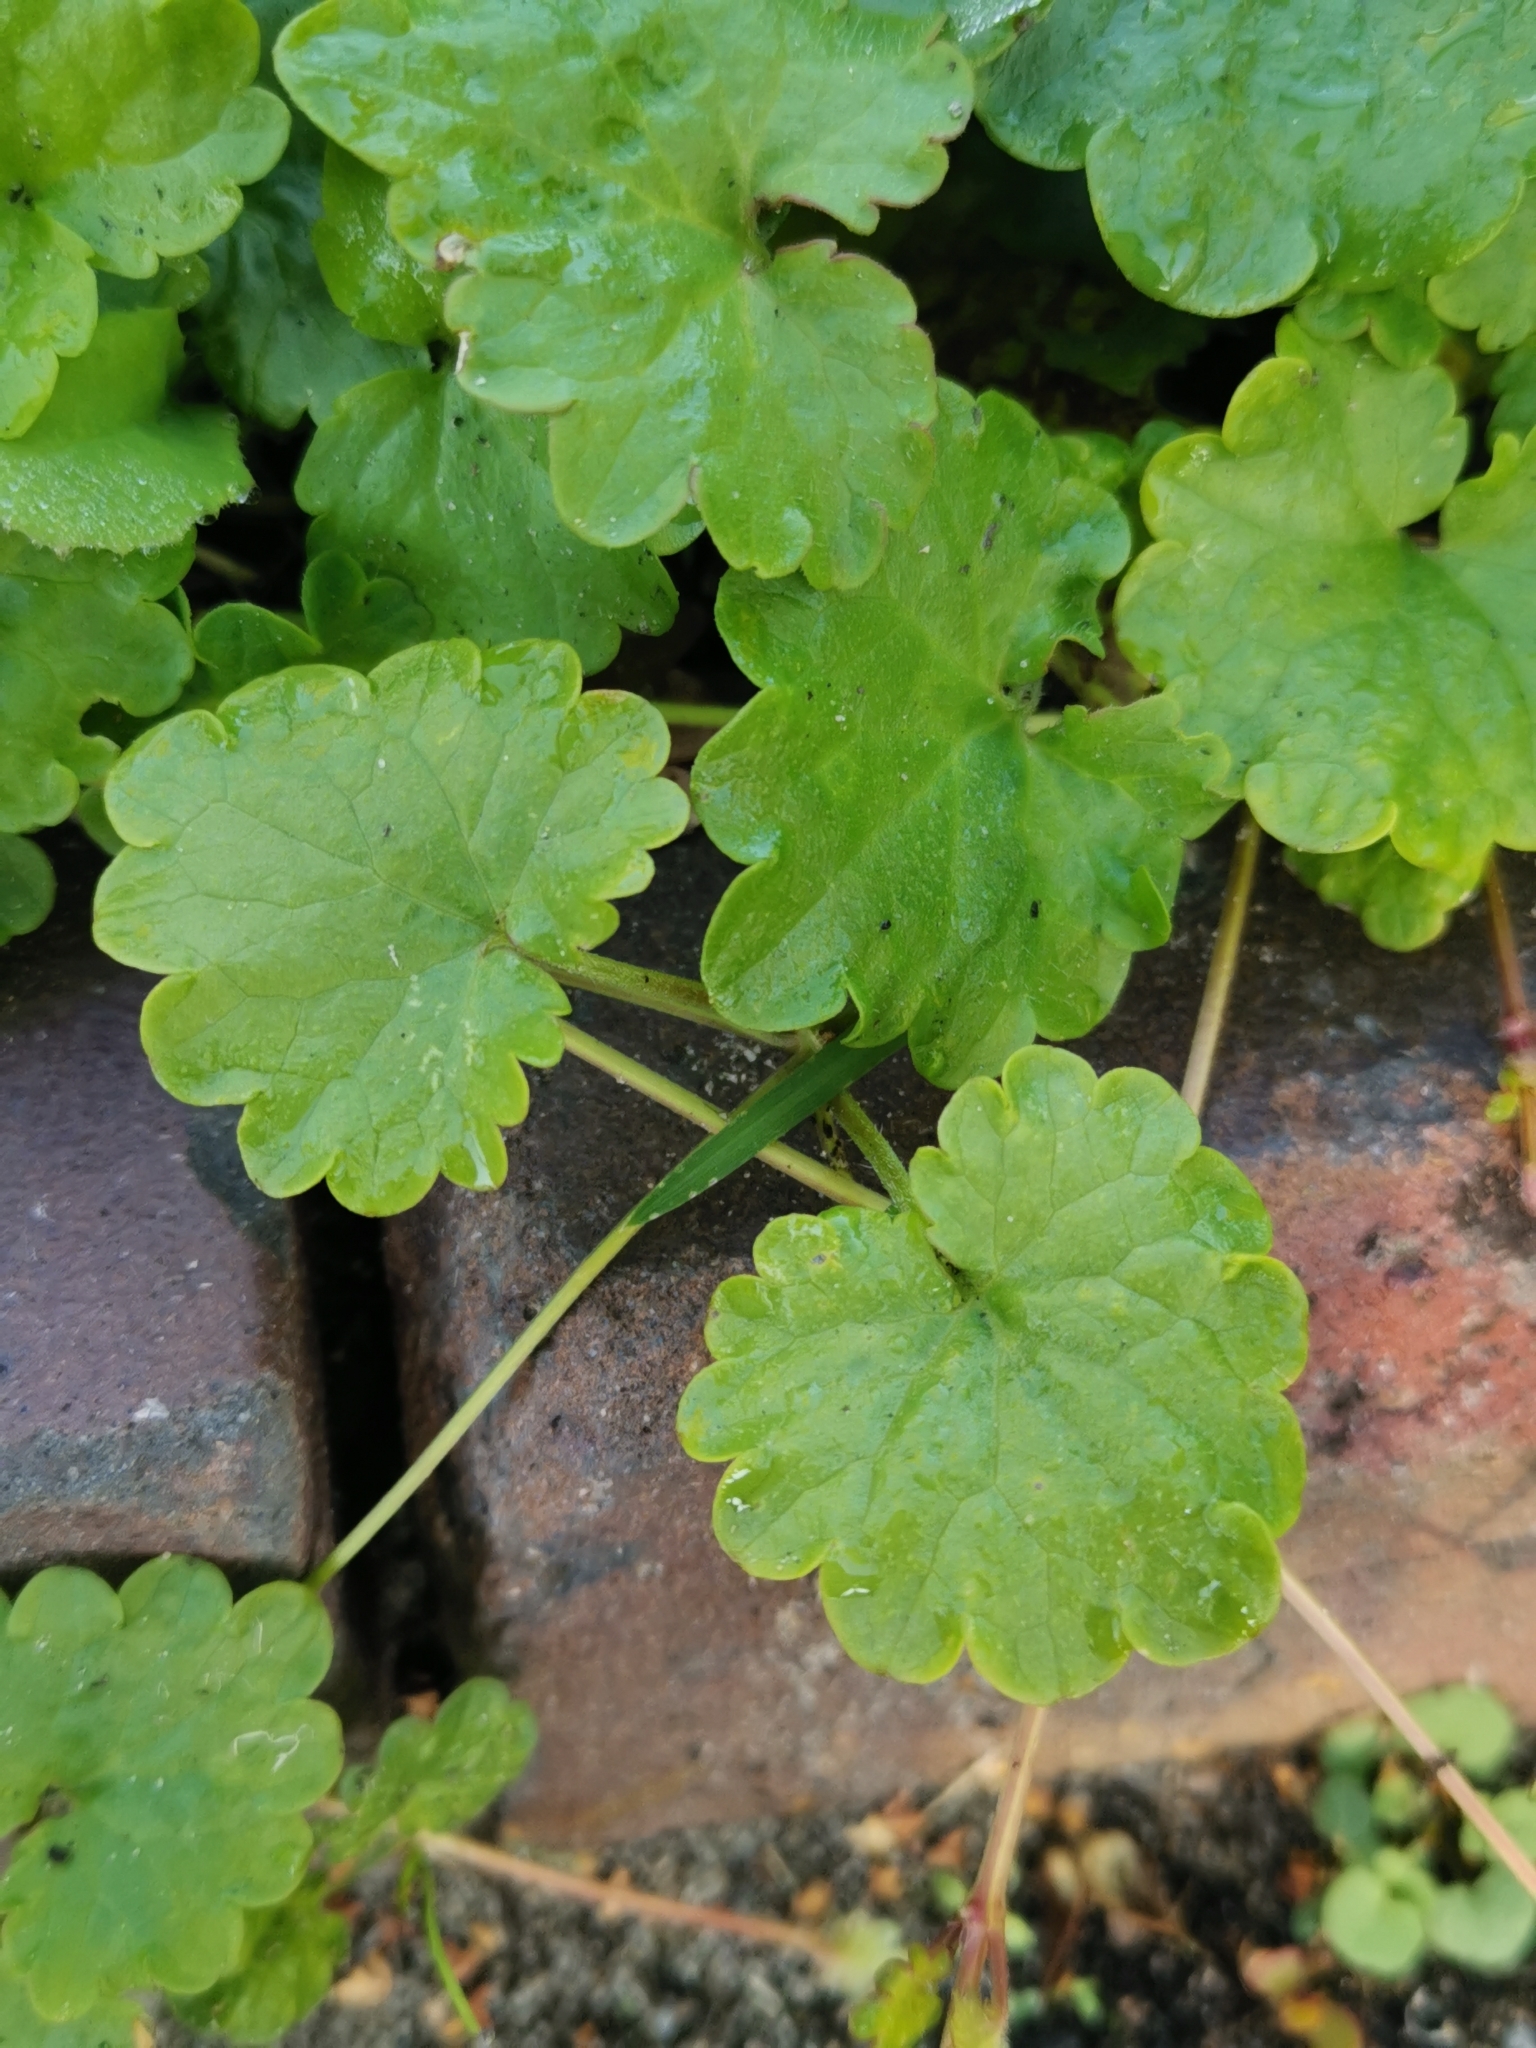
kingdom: Plantae
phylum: Tracheophyta
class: Magnoliopsida
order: Lamiales
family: Lamiaceae
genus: Glechoma
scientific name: Glechoma hederacea
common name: Ground ivy
